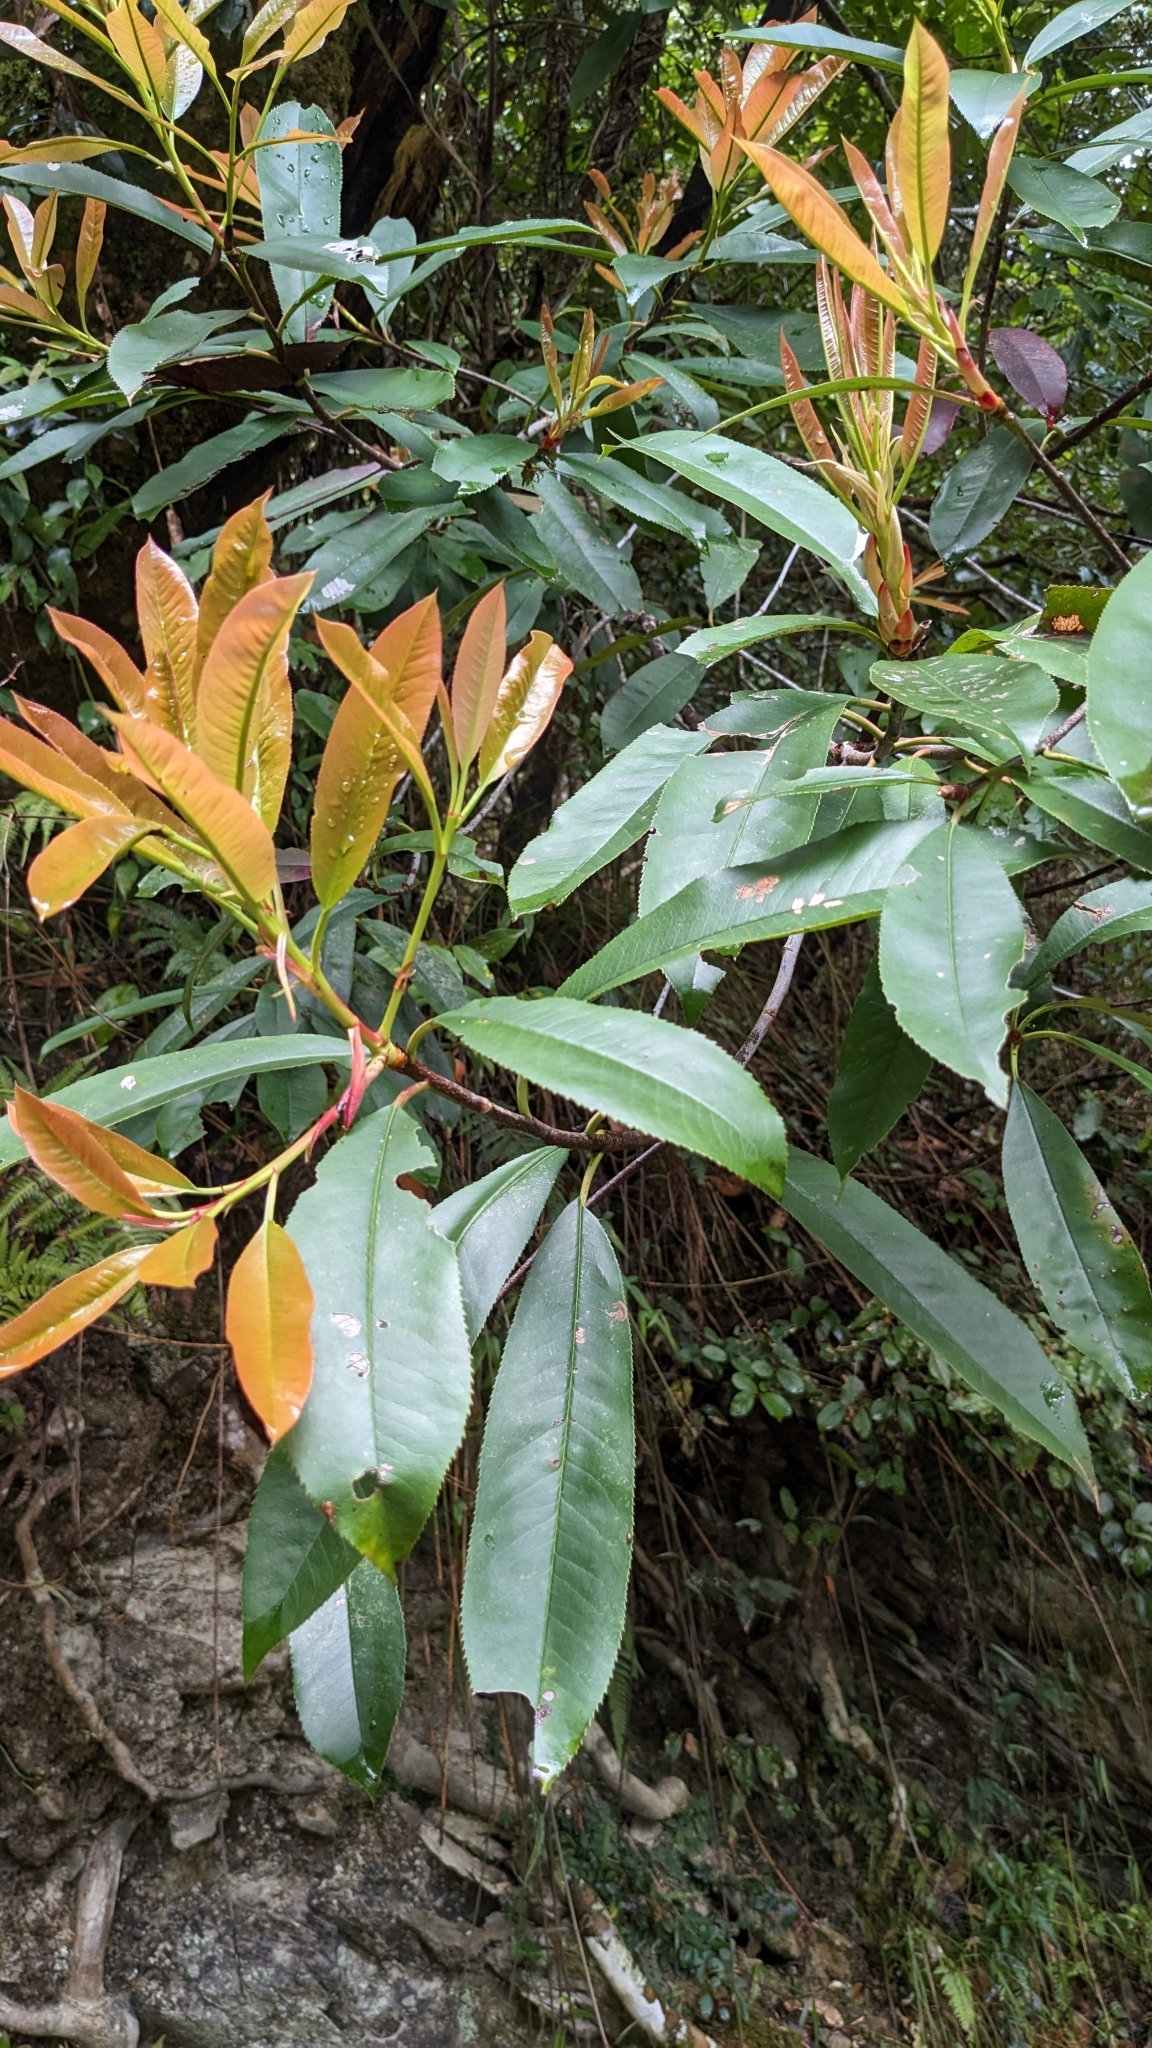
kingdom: Plantae
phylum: Tracheophyta
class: Magnoliopsida
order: Rosales
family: Rosaceae
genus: Photinia
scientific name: Photinia serratifolia
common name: Taiwanese photinia
